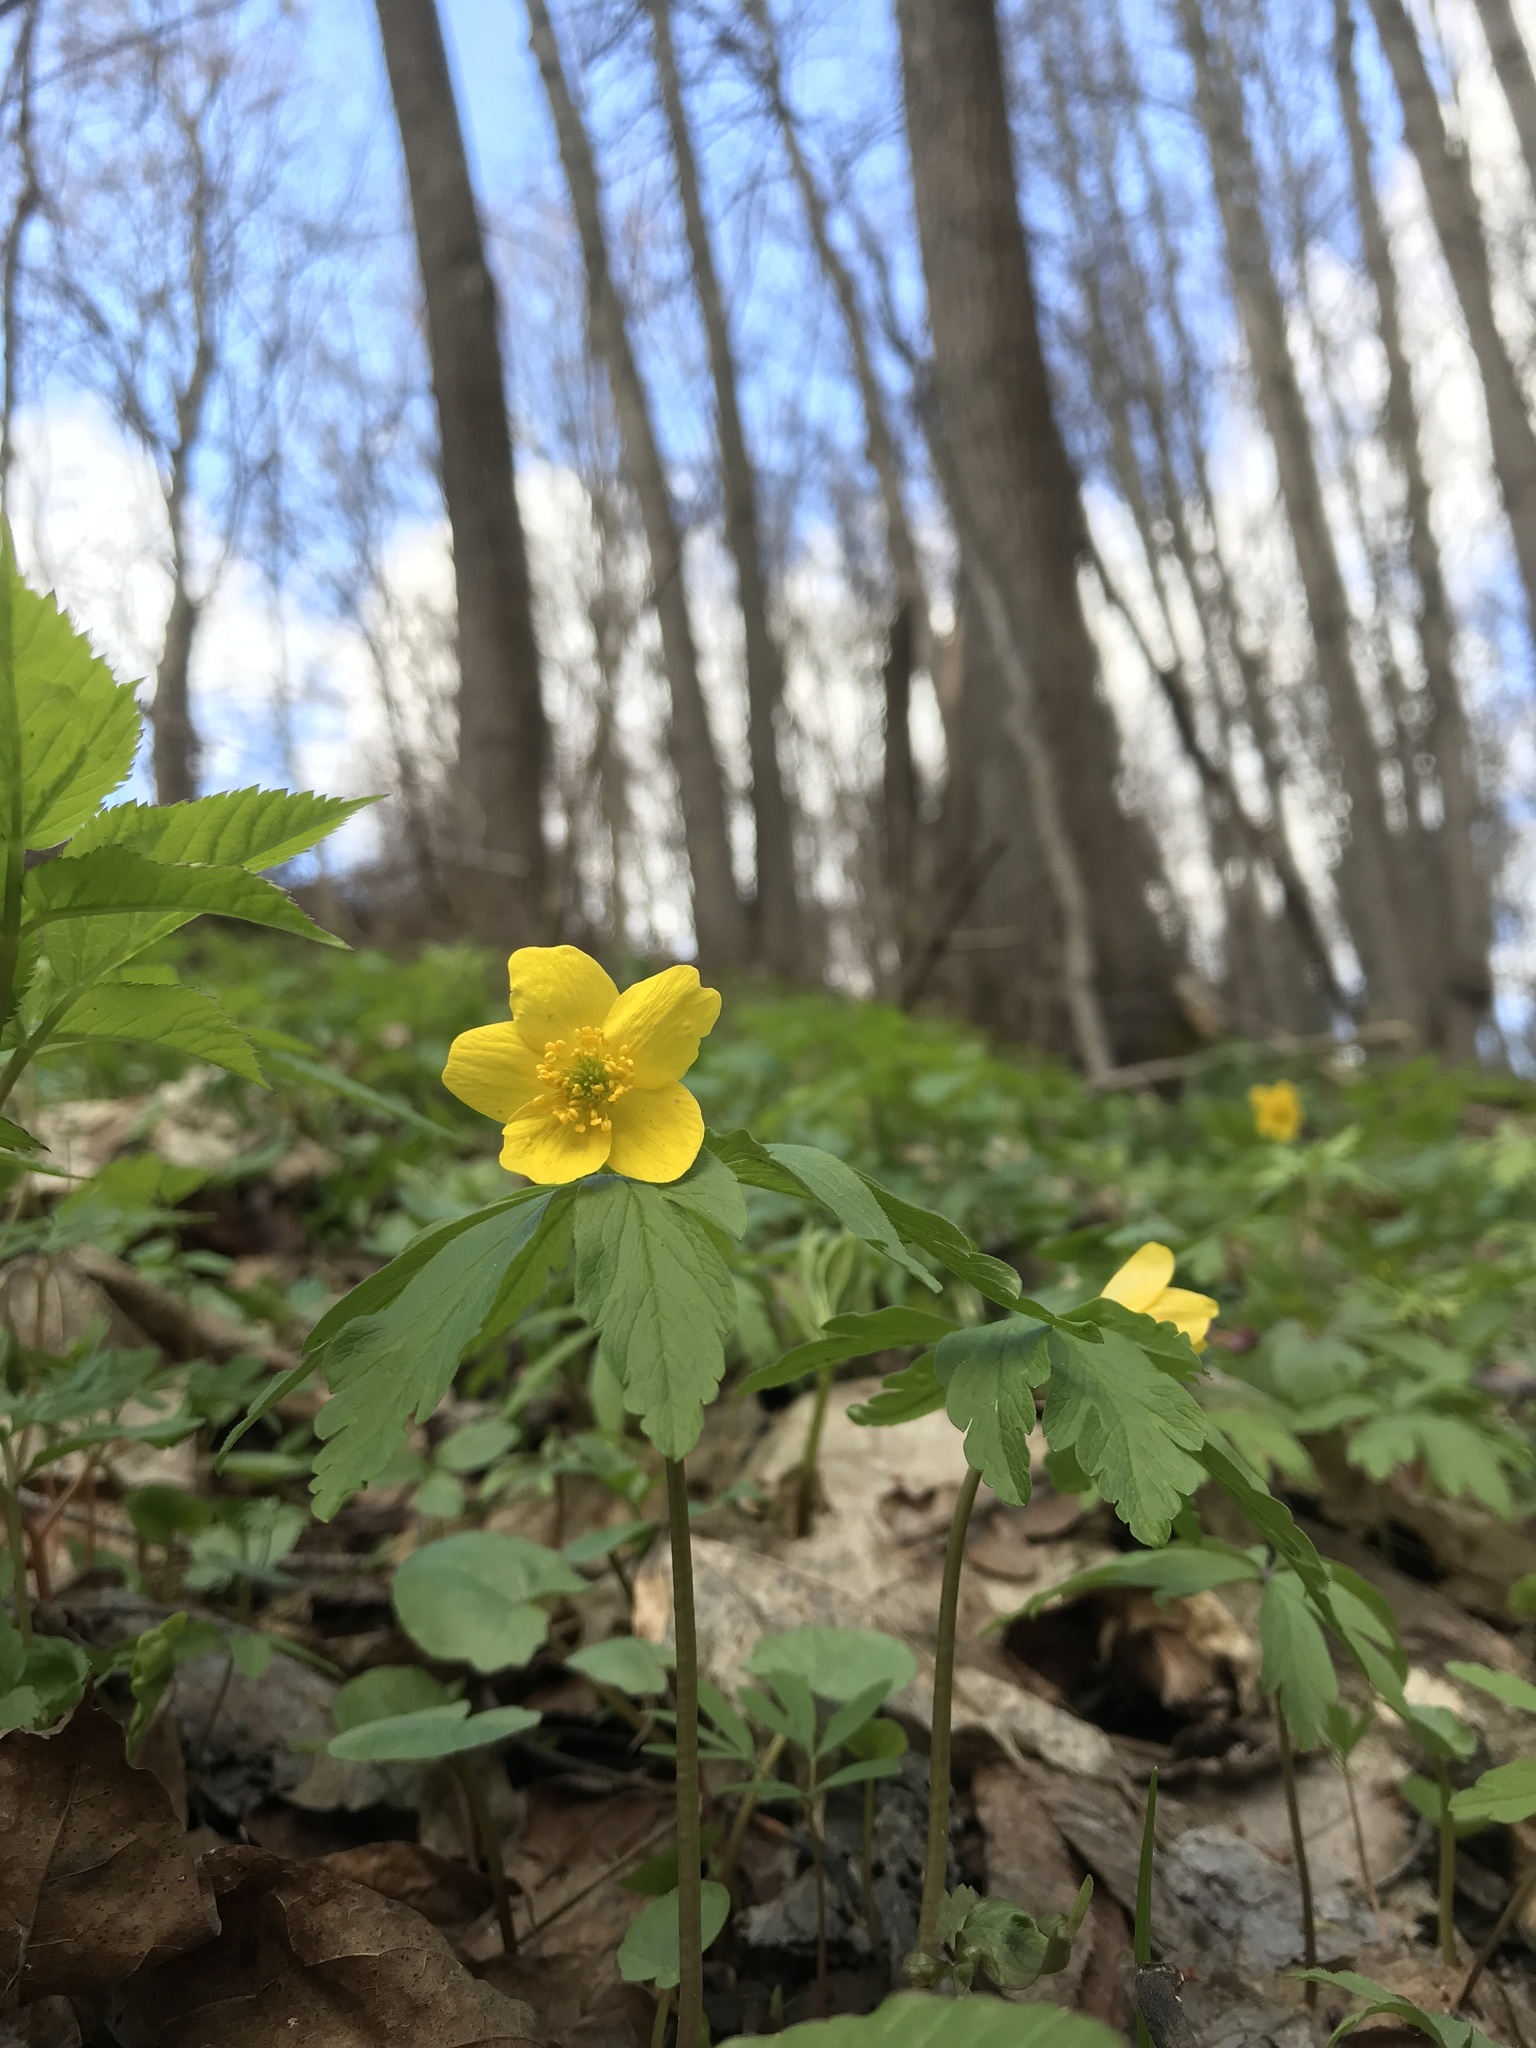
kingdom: Plantae
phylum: Tracheophyta
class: Magnoliopsida
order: Ranunculales
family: Ranunculaceae
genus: Anemone
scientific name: Anemone ranunculoides
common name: Yellow anemone
